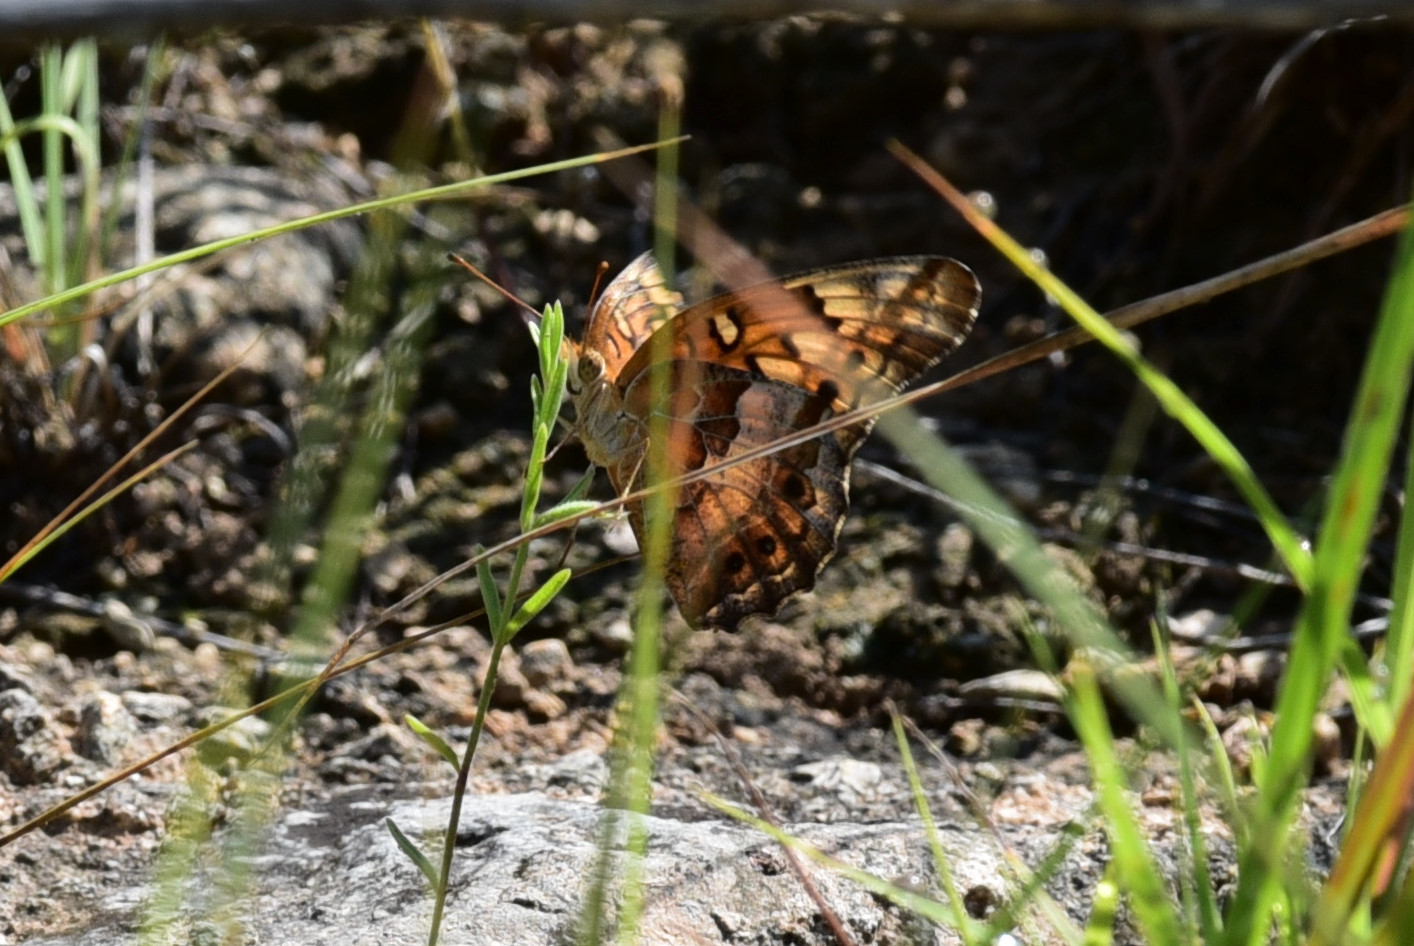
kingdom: Animalia
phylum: Arthropoda
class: Insecta
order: Lepidoptera
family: Nymphalidae
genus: Euptoieta
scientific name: Euptoieta claudia
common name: Variegated fritillary
